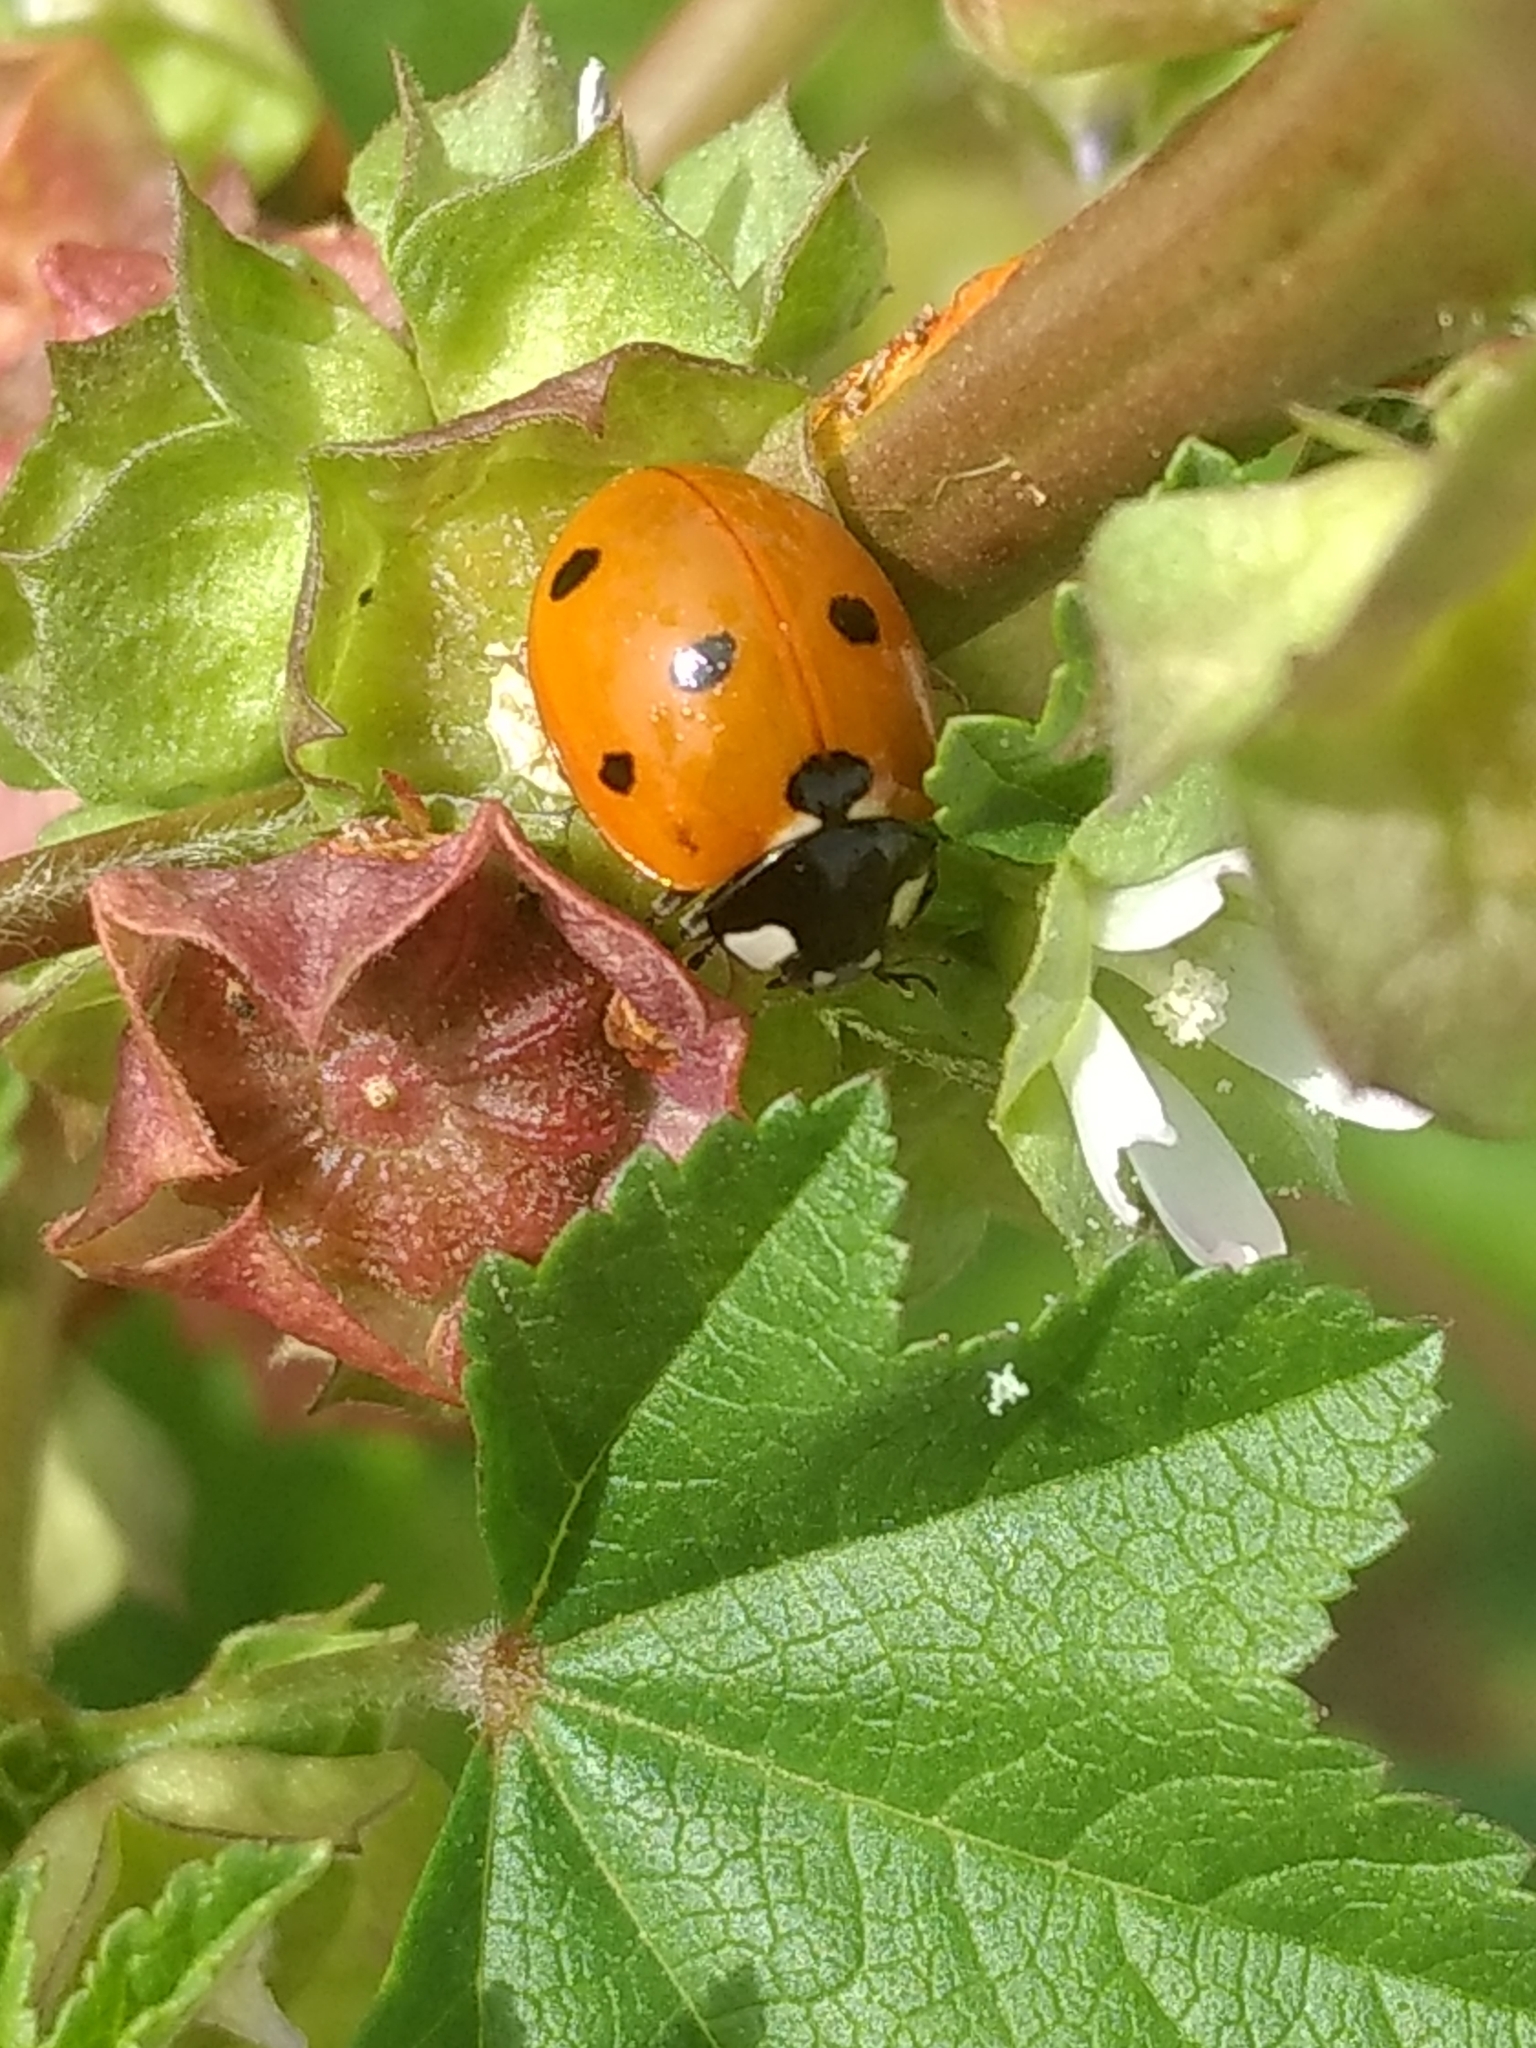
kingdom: Animalia
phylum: Arthropoda
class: Insecta
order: Coleoptera
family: Coccinellidae
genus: Coccinella
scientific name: Coccinella septempunctata
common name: Sevenspotted lady beetle
